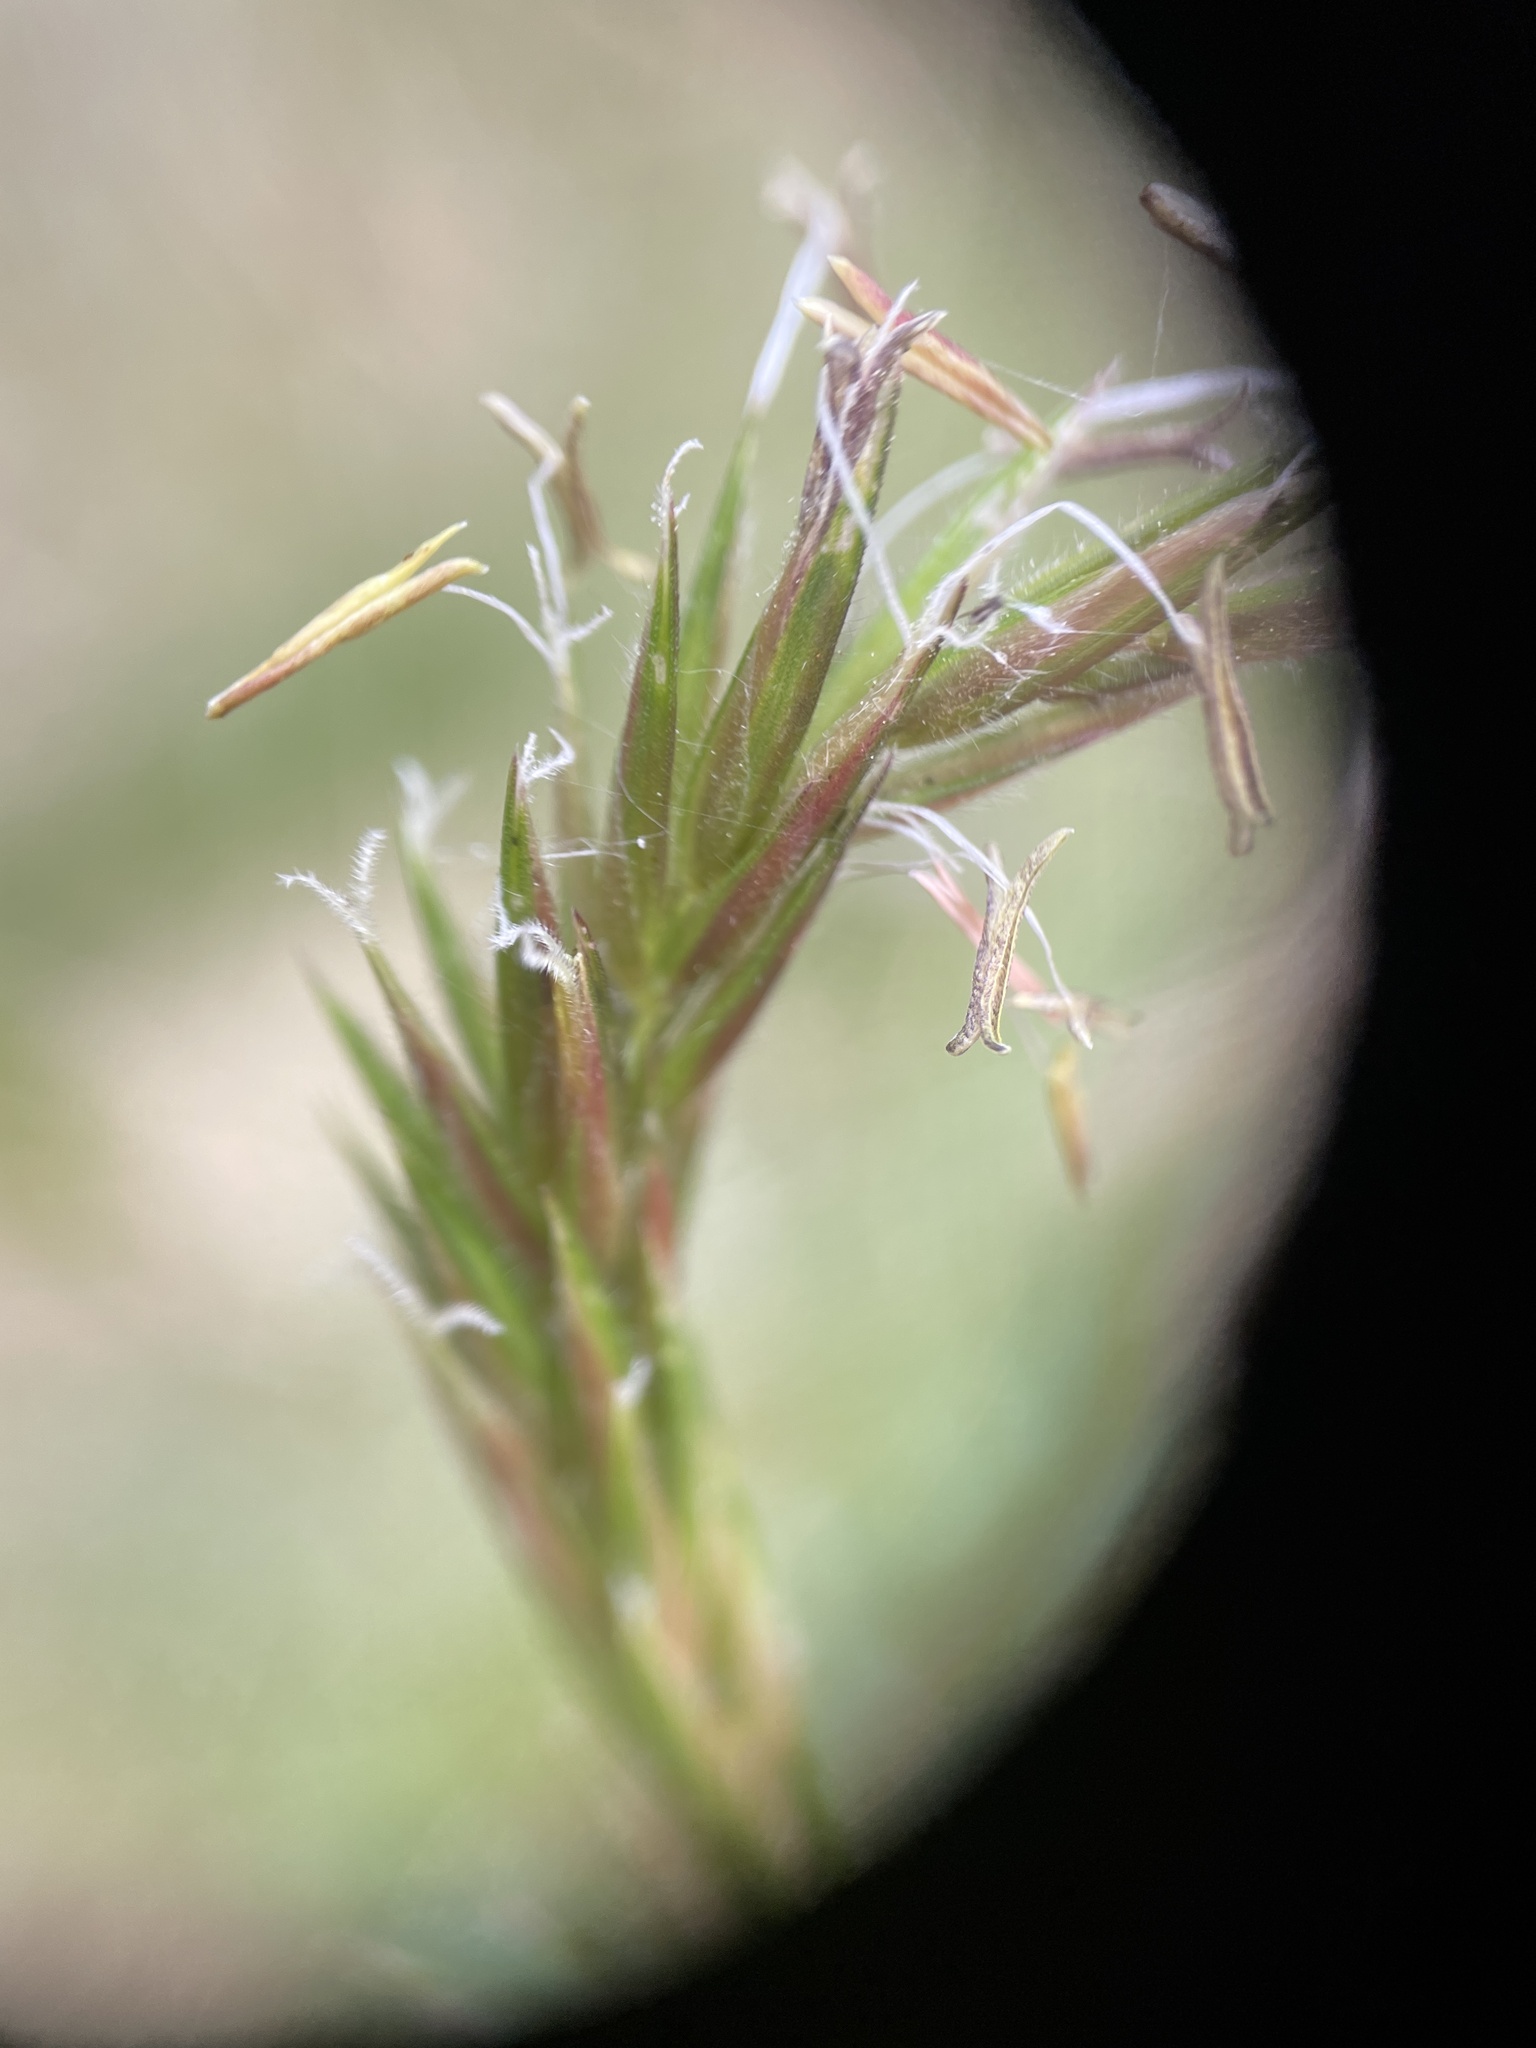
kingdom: Plantae
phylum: Tracheophyta
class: Liliopsida
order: Poales
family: Poaceae
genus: Anthoxanthum
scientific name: Anthoxanthum odoratum
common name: Sweet vernalgrass
